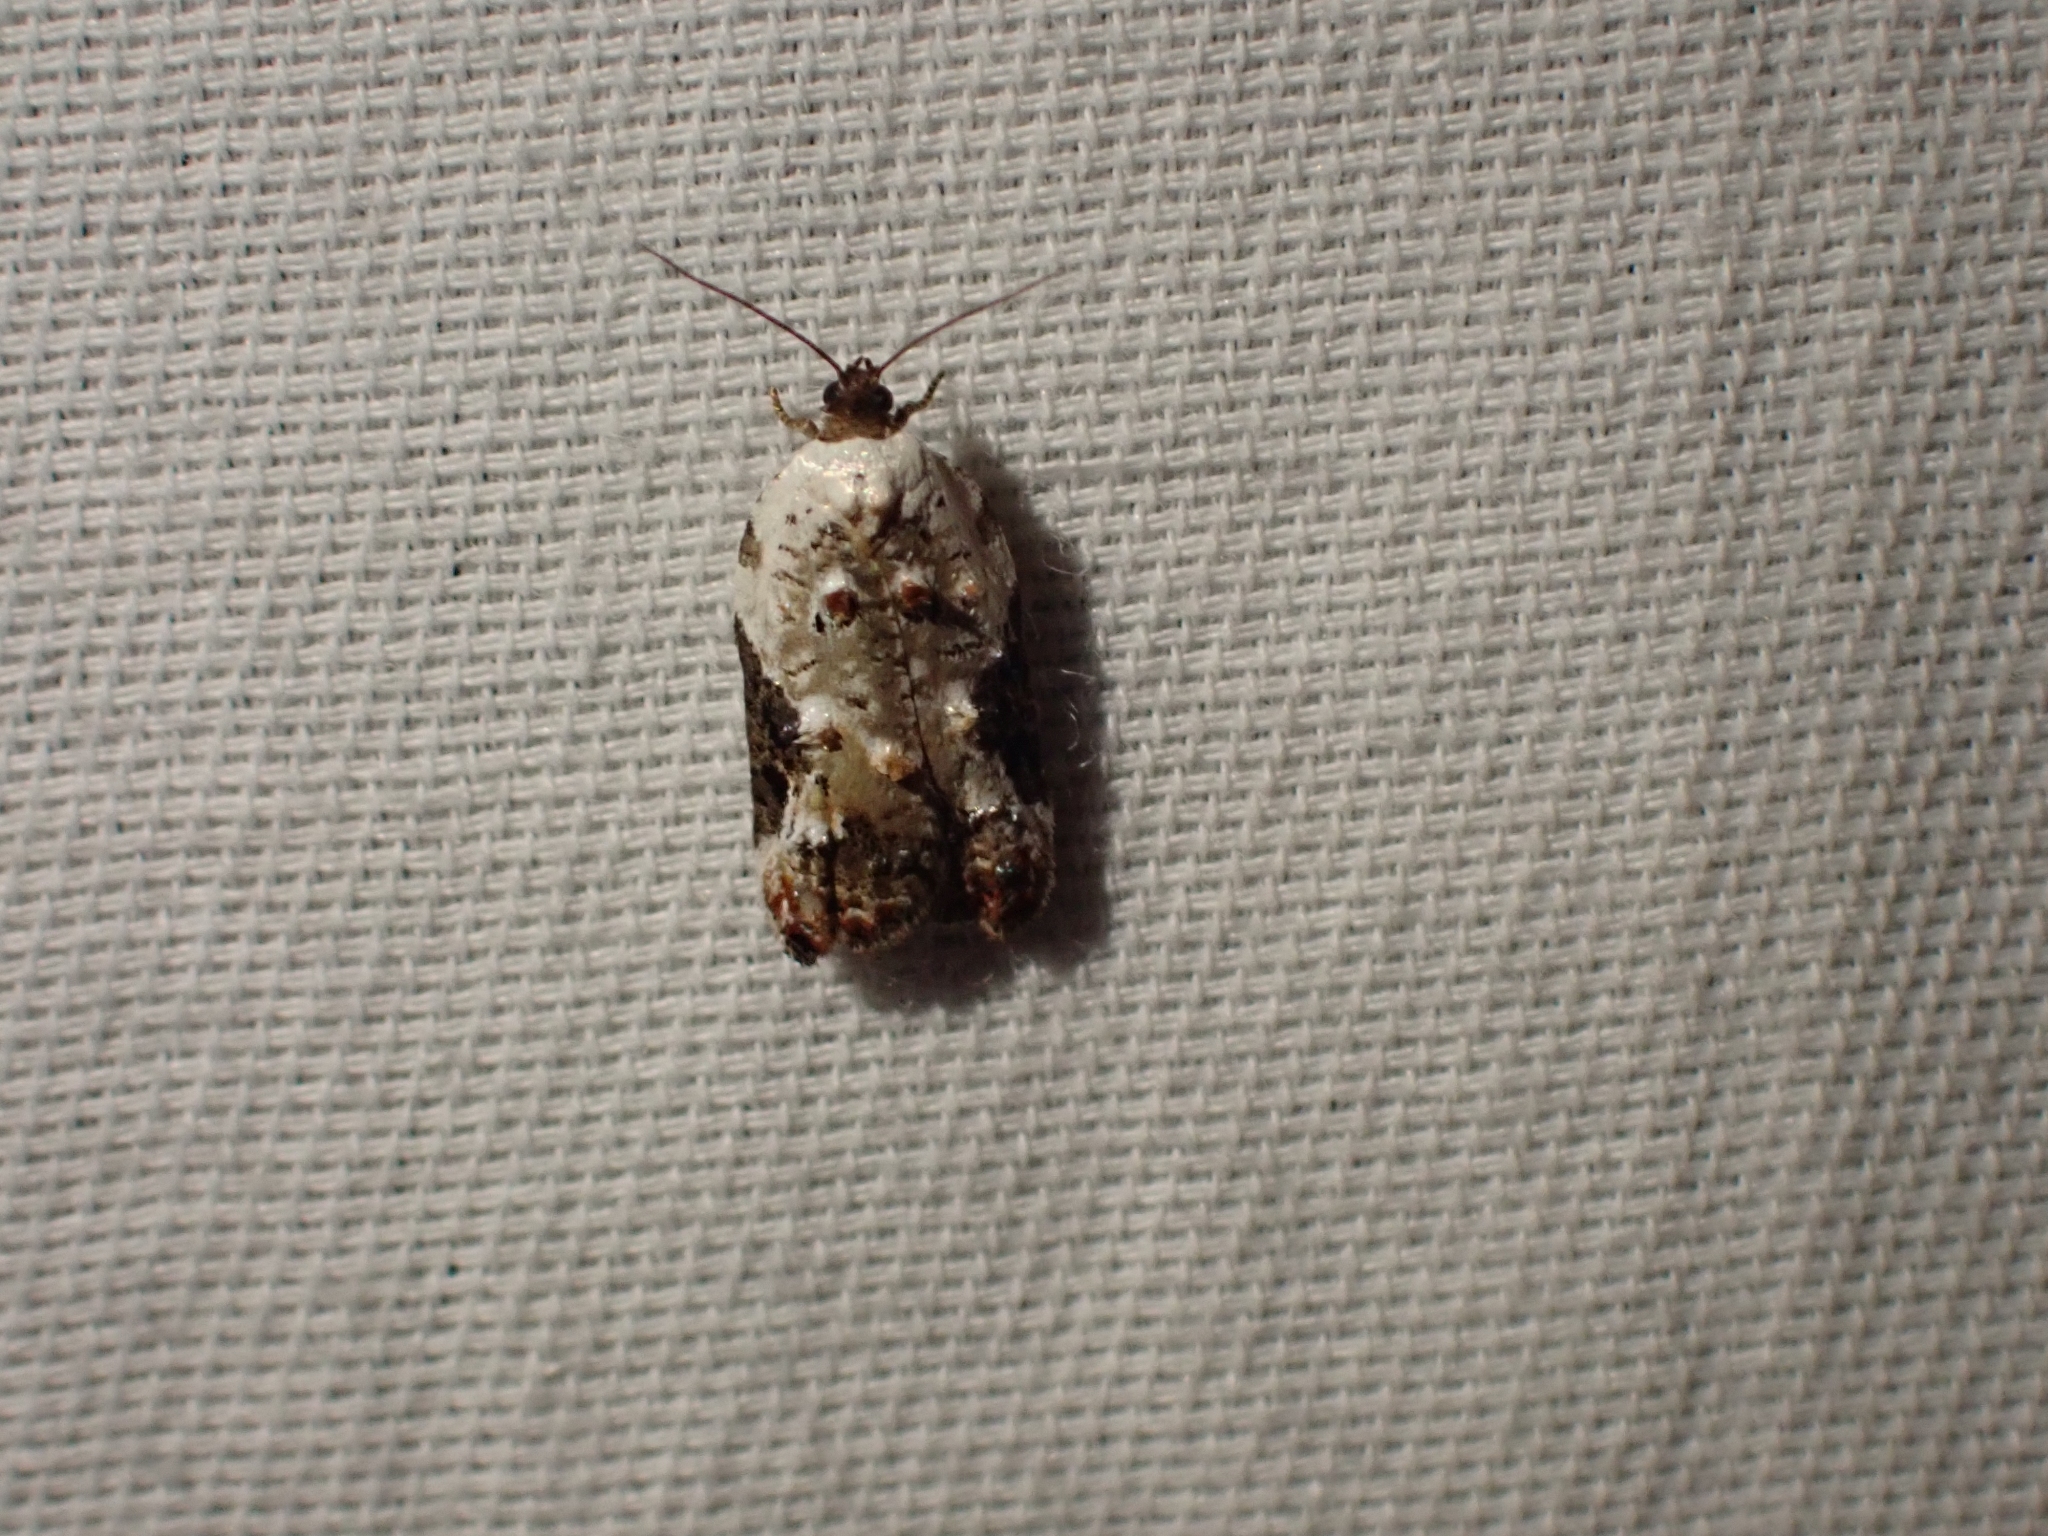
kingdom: Animalia
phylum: Arthropoda
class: Insecta
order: Lepidoptera
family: Tortricidae
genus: Acleris
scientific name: Acleris nivisellana
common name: Snowy-shouldered acleris moth
